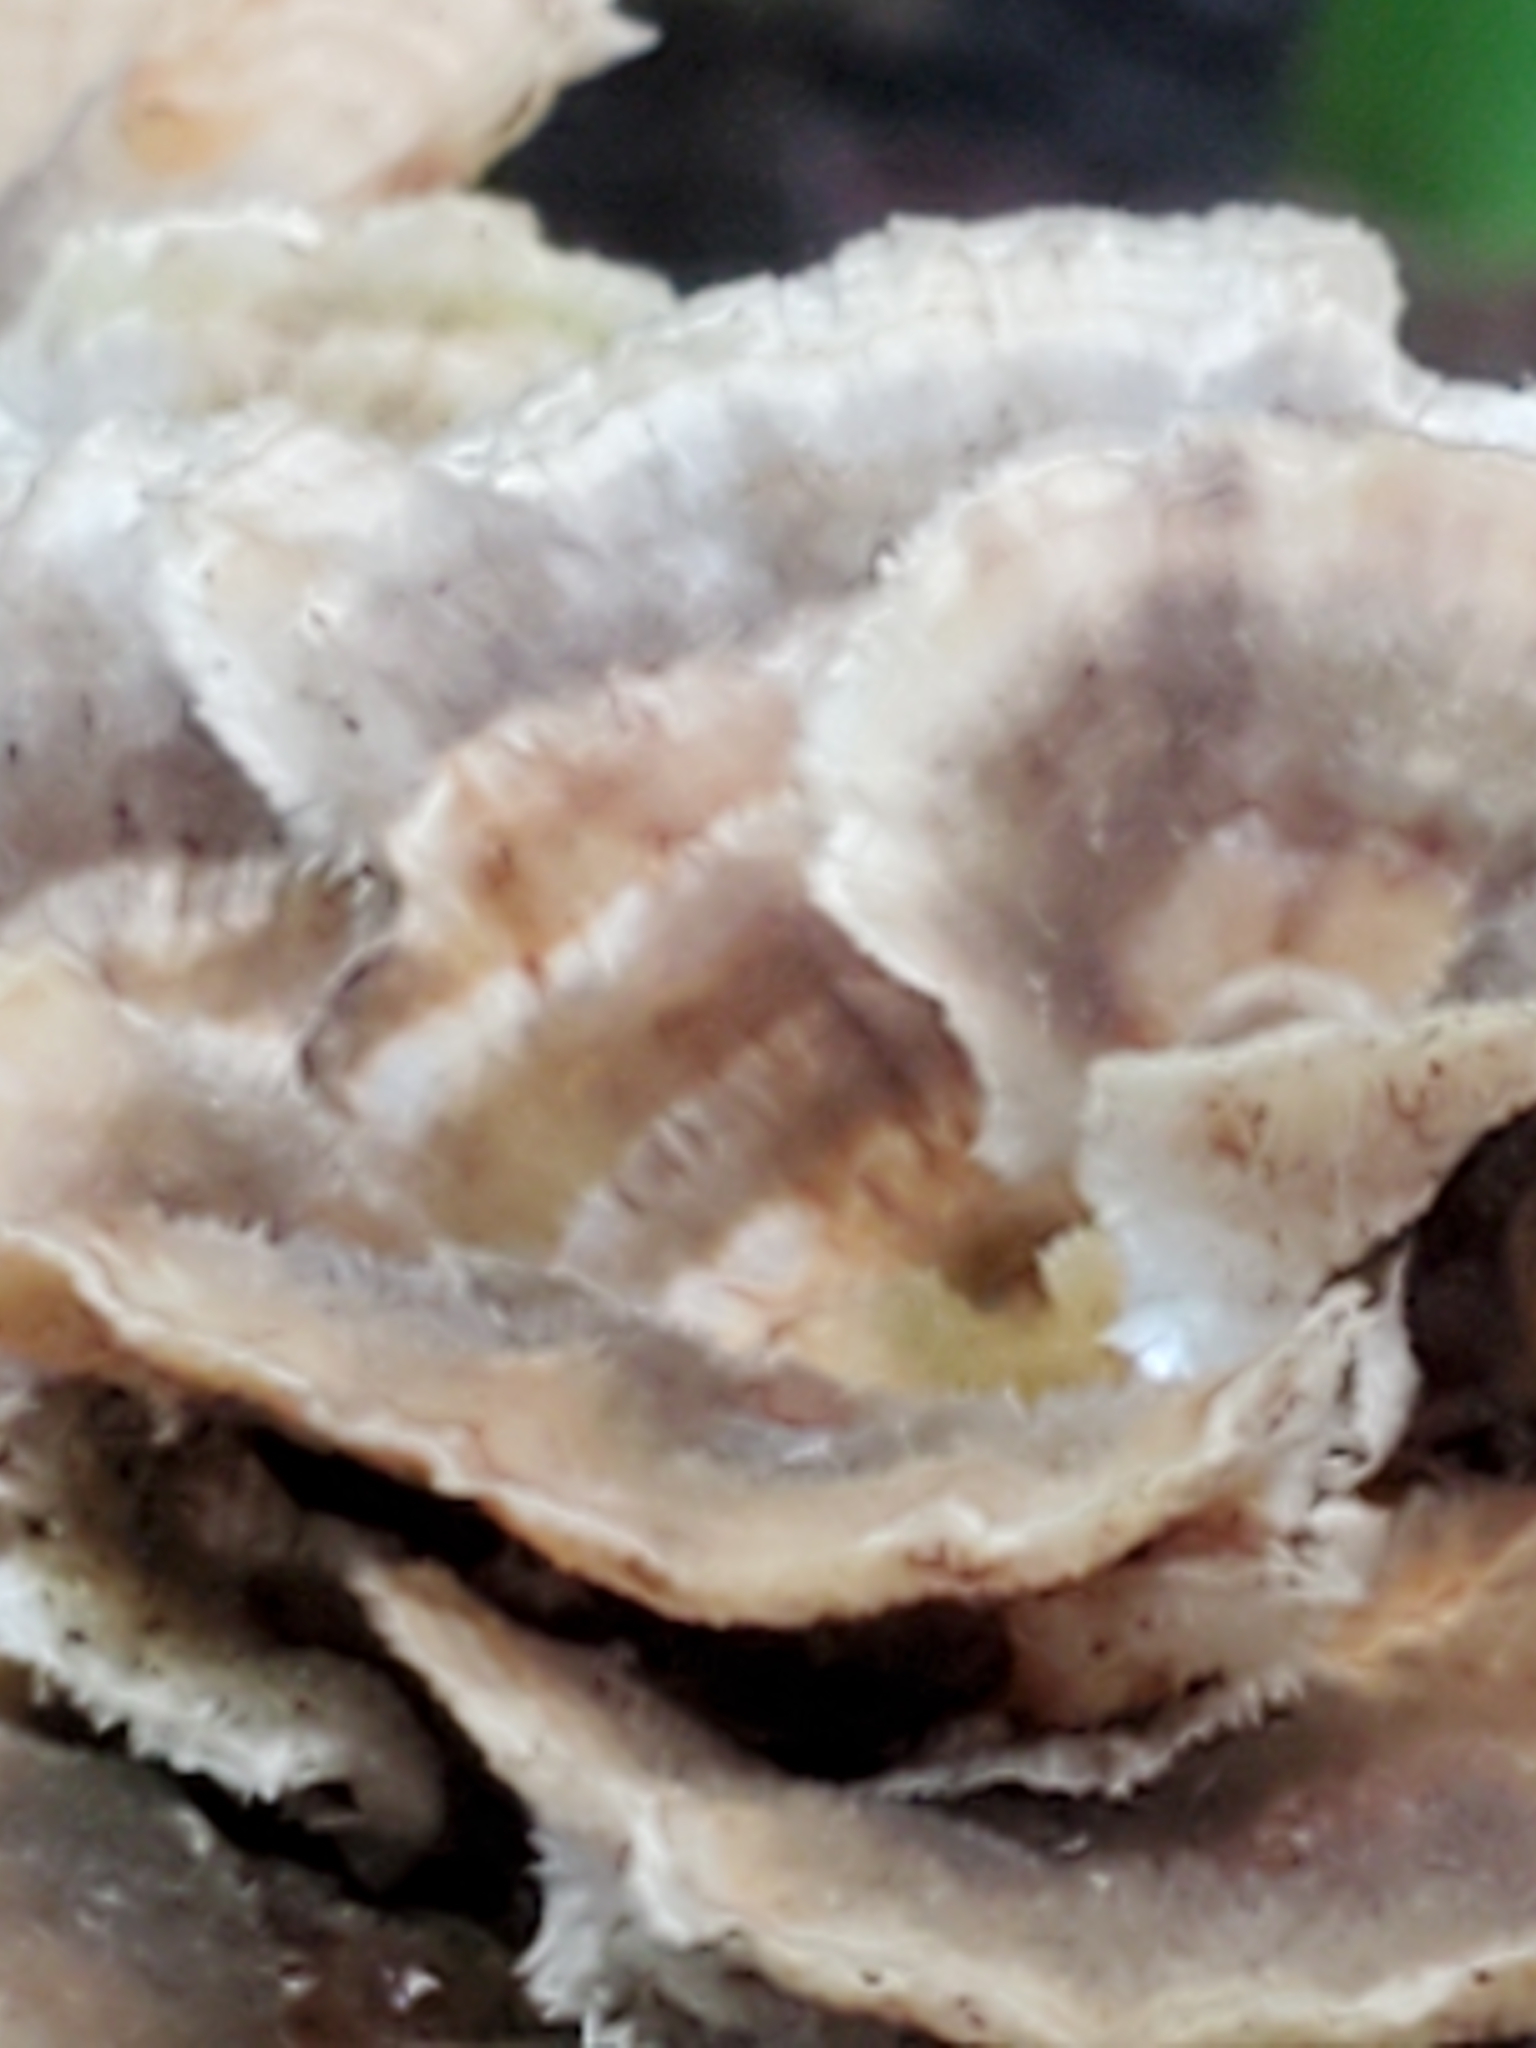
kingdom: Fungi
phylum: Basidiomycota
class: Agaricomycetes
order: Polyporales
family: Polyporaceae
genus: Trametes
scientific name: Trametes versicolor
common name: Turkeytail
